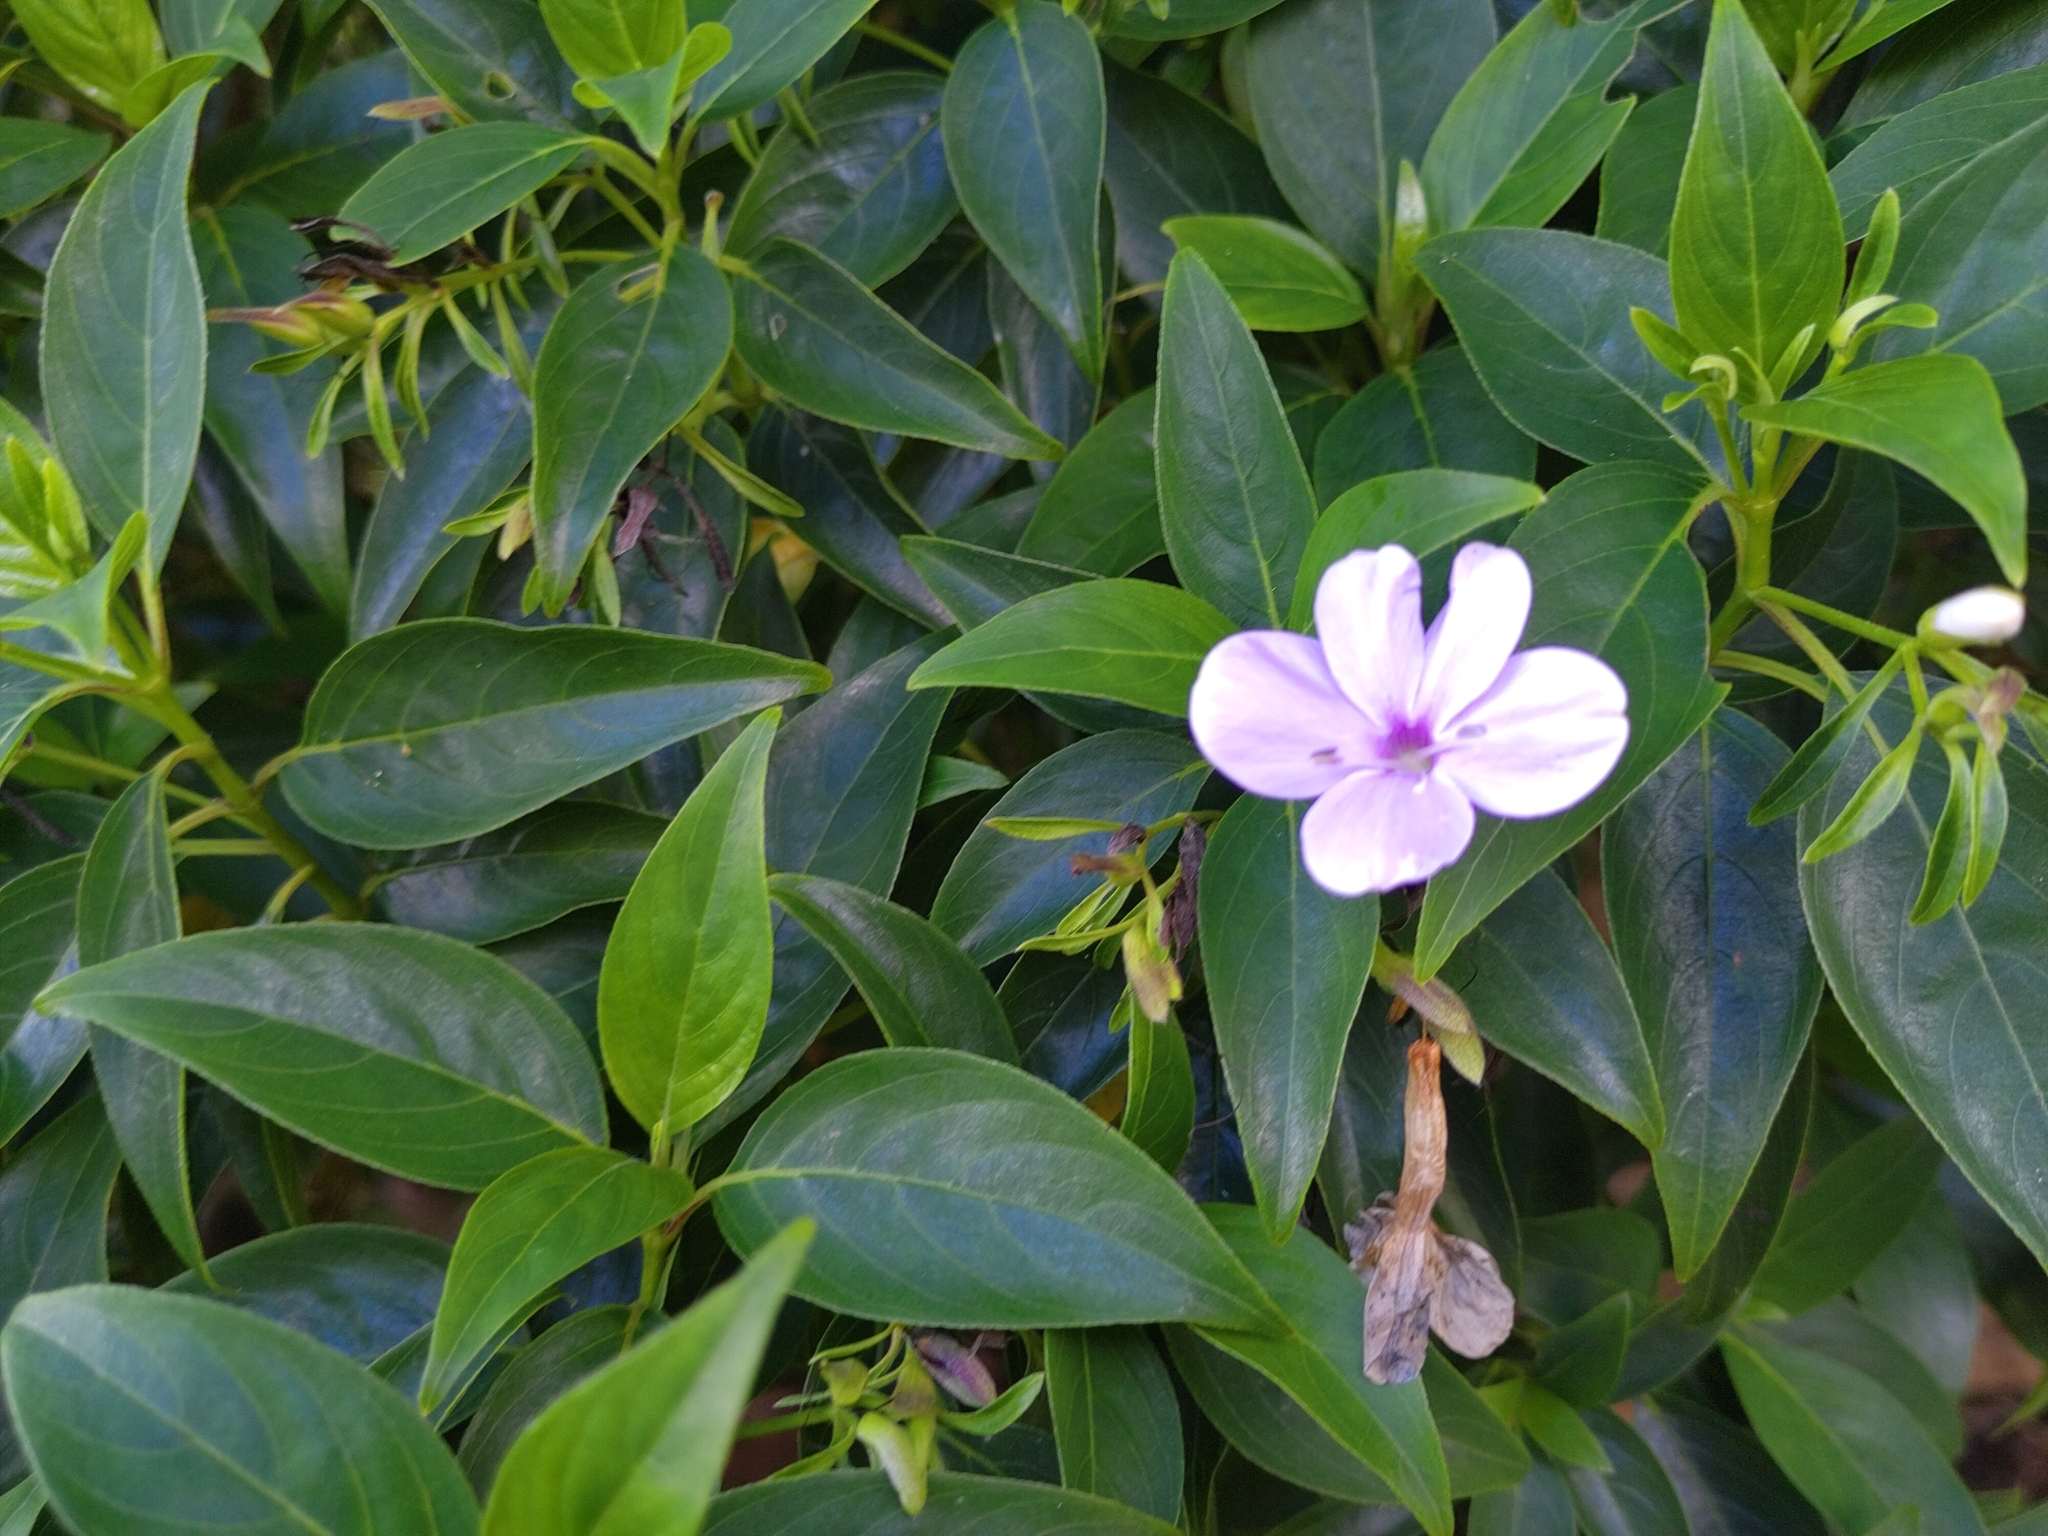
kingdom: Plantae
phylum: Tracheophyta
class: Magnoliopsida
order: Lamiales
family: Acanthaceae
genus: Barleria
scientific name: Barleria observatrix
